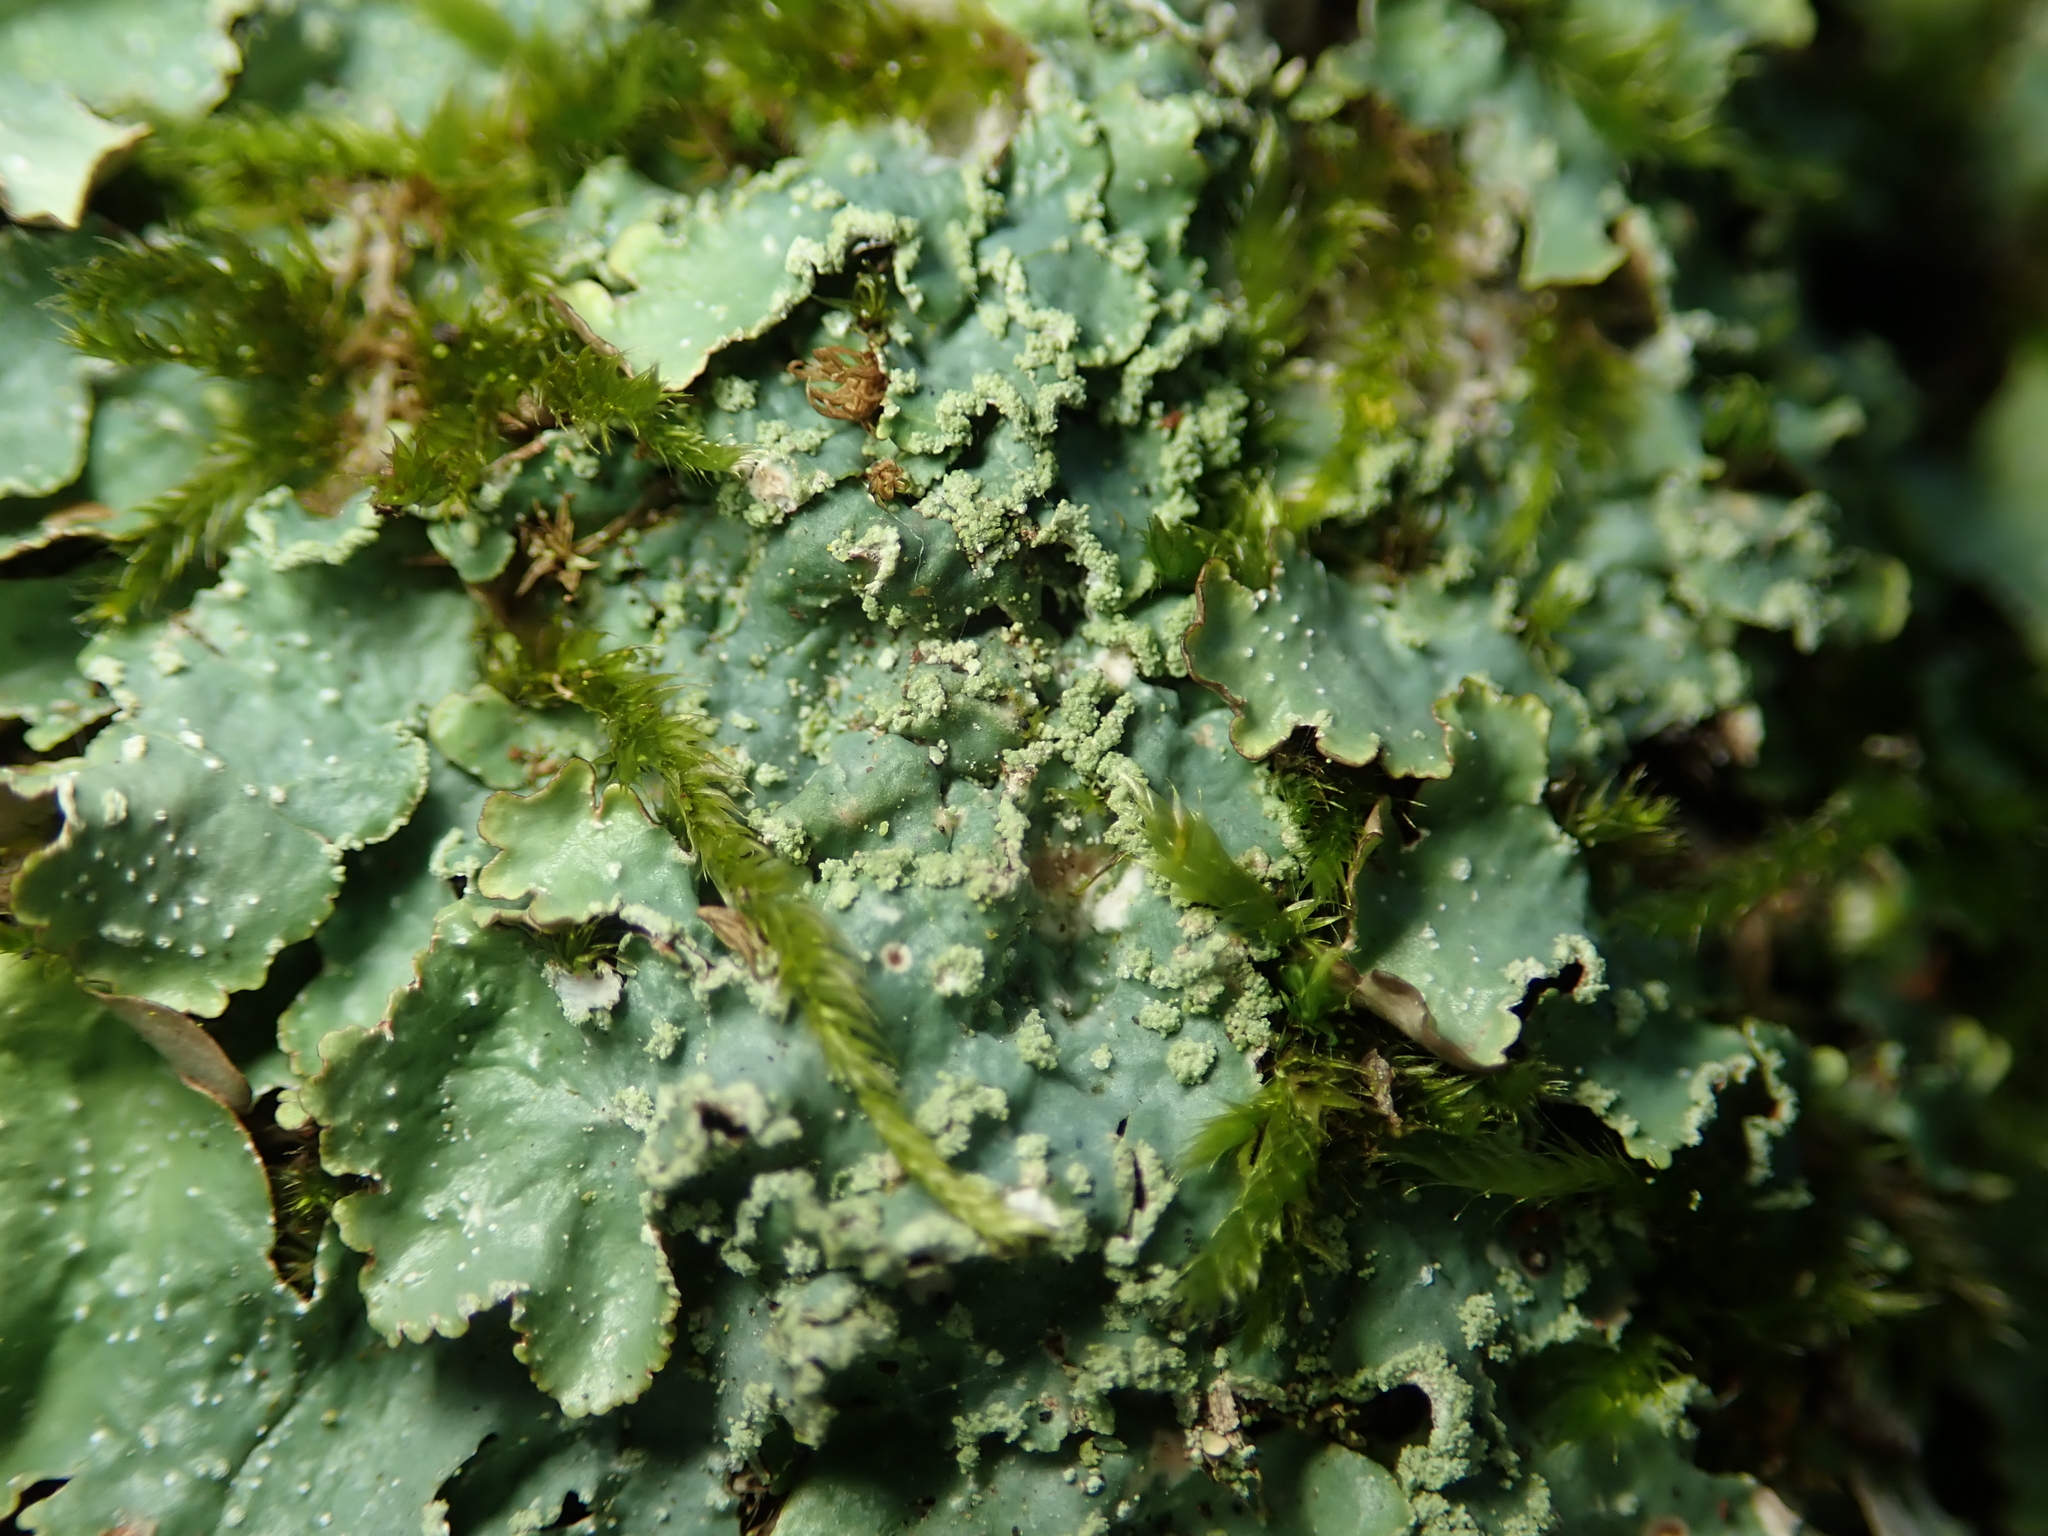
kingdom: Fungi
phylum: Ascomycota
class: Lecanoromycetes
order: Lecanorales
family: Parmeliaceae
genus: Punctelia
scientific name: Punctelia jeckeri
